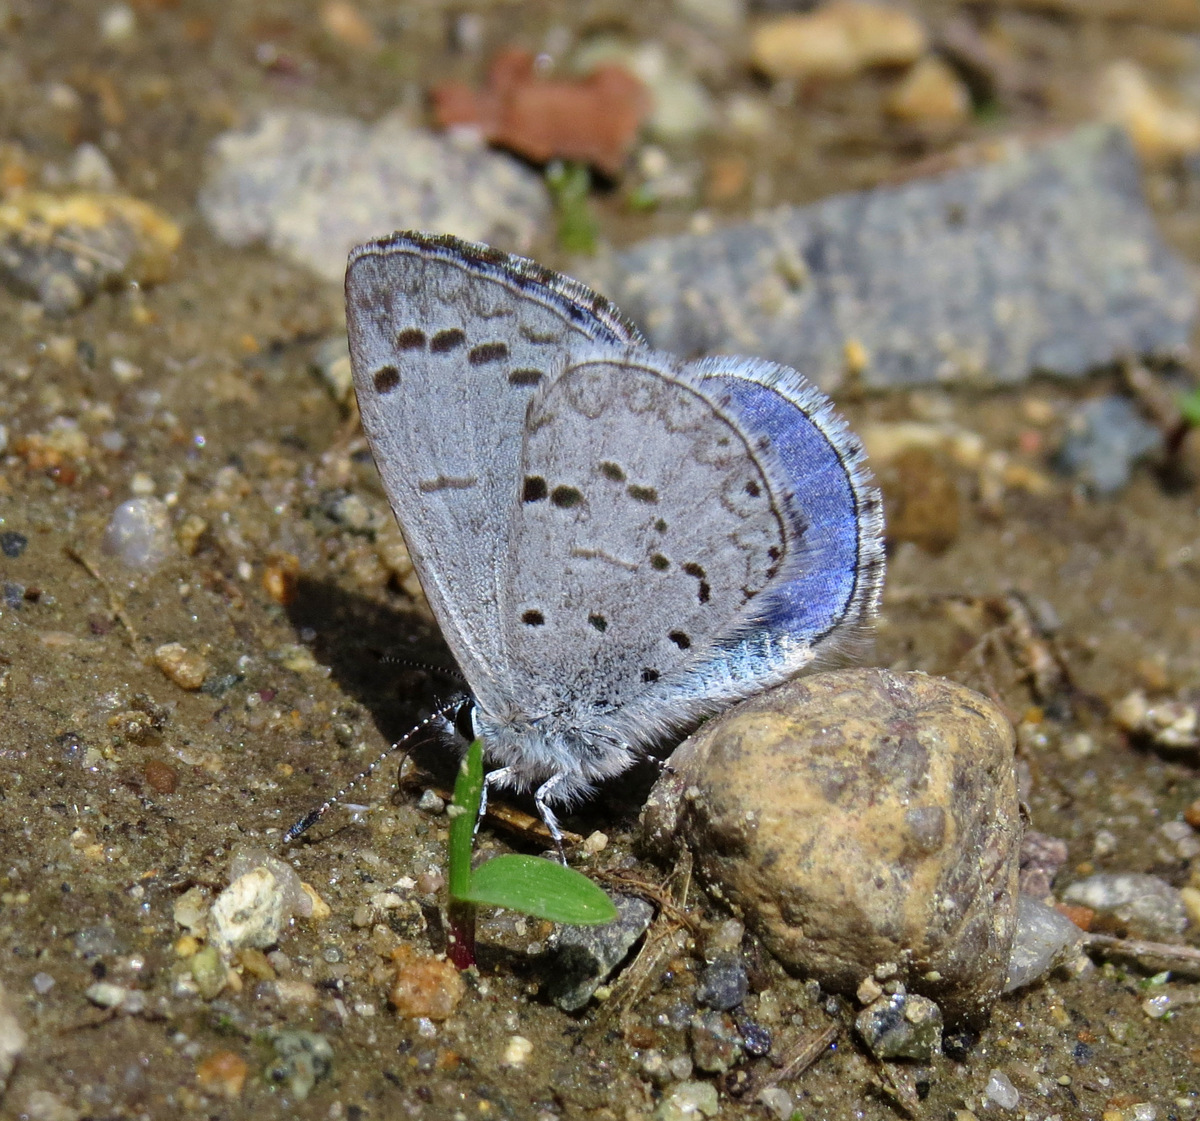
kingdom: Animalia
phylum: Arthropoda
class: Insecta
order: Lepidoptera
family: Lycaenidae
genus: Celastrina
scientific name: Celastrina ladon
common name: Spring azure
